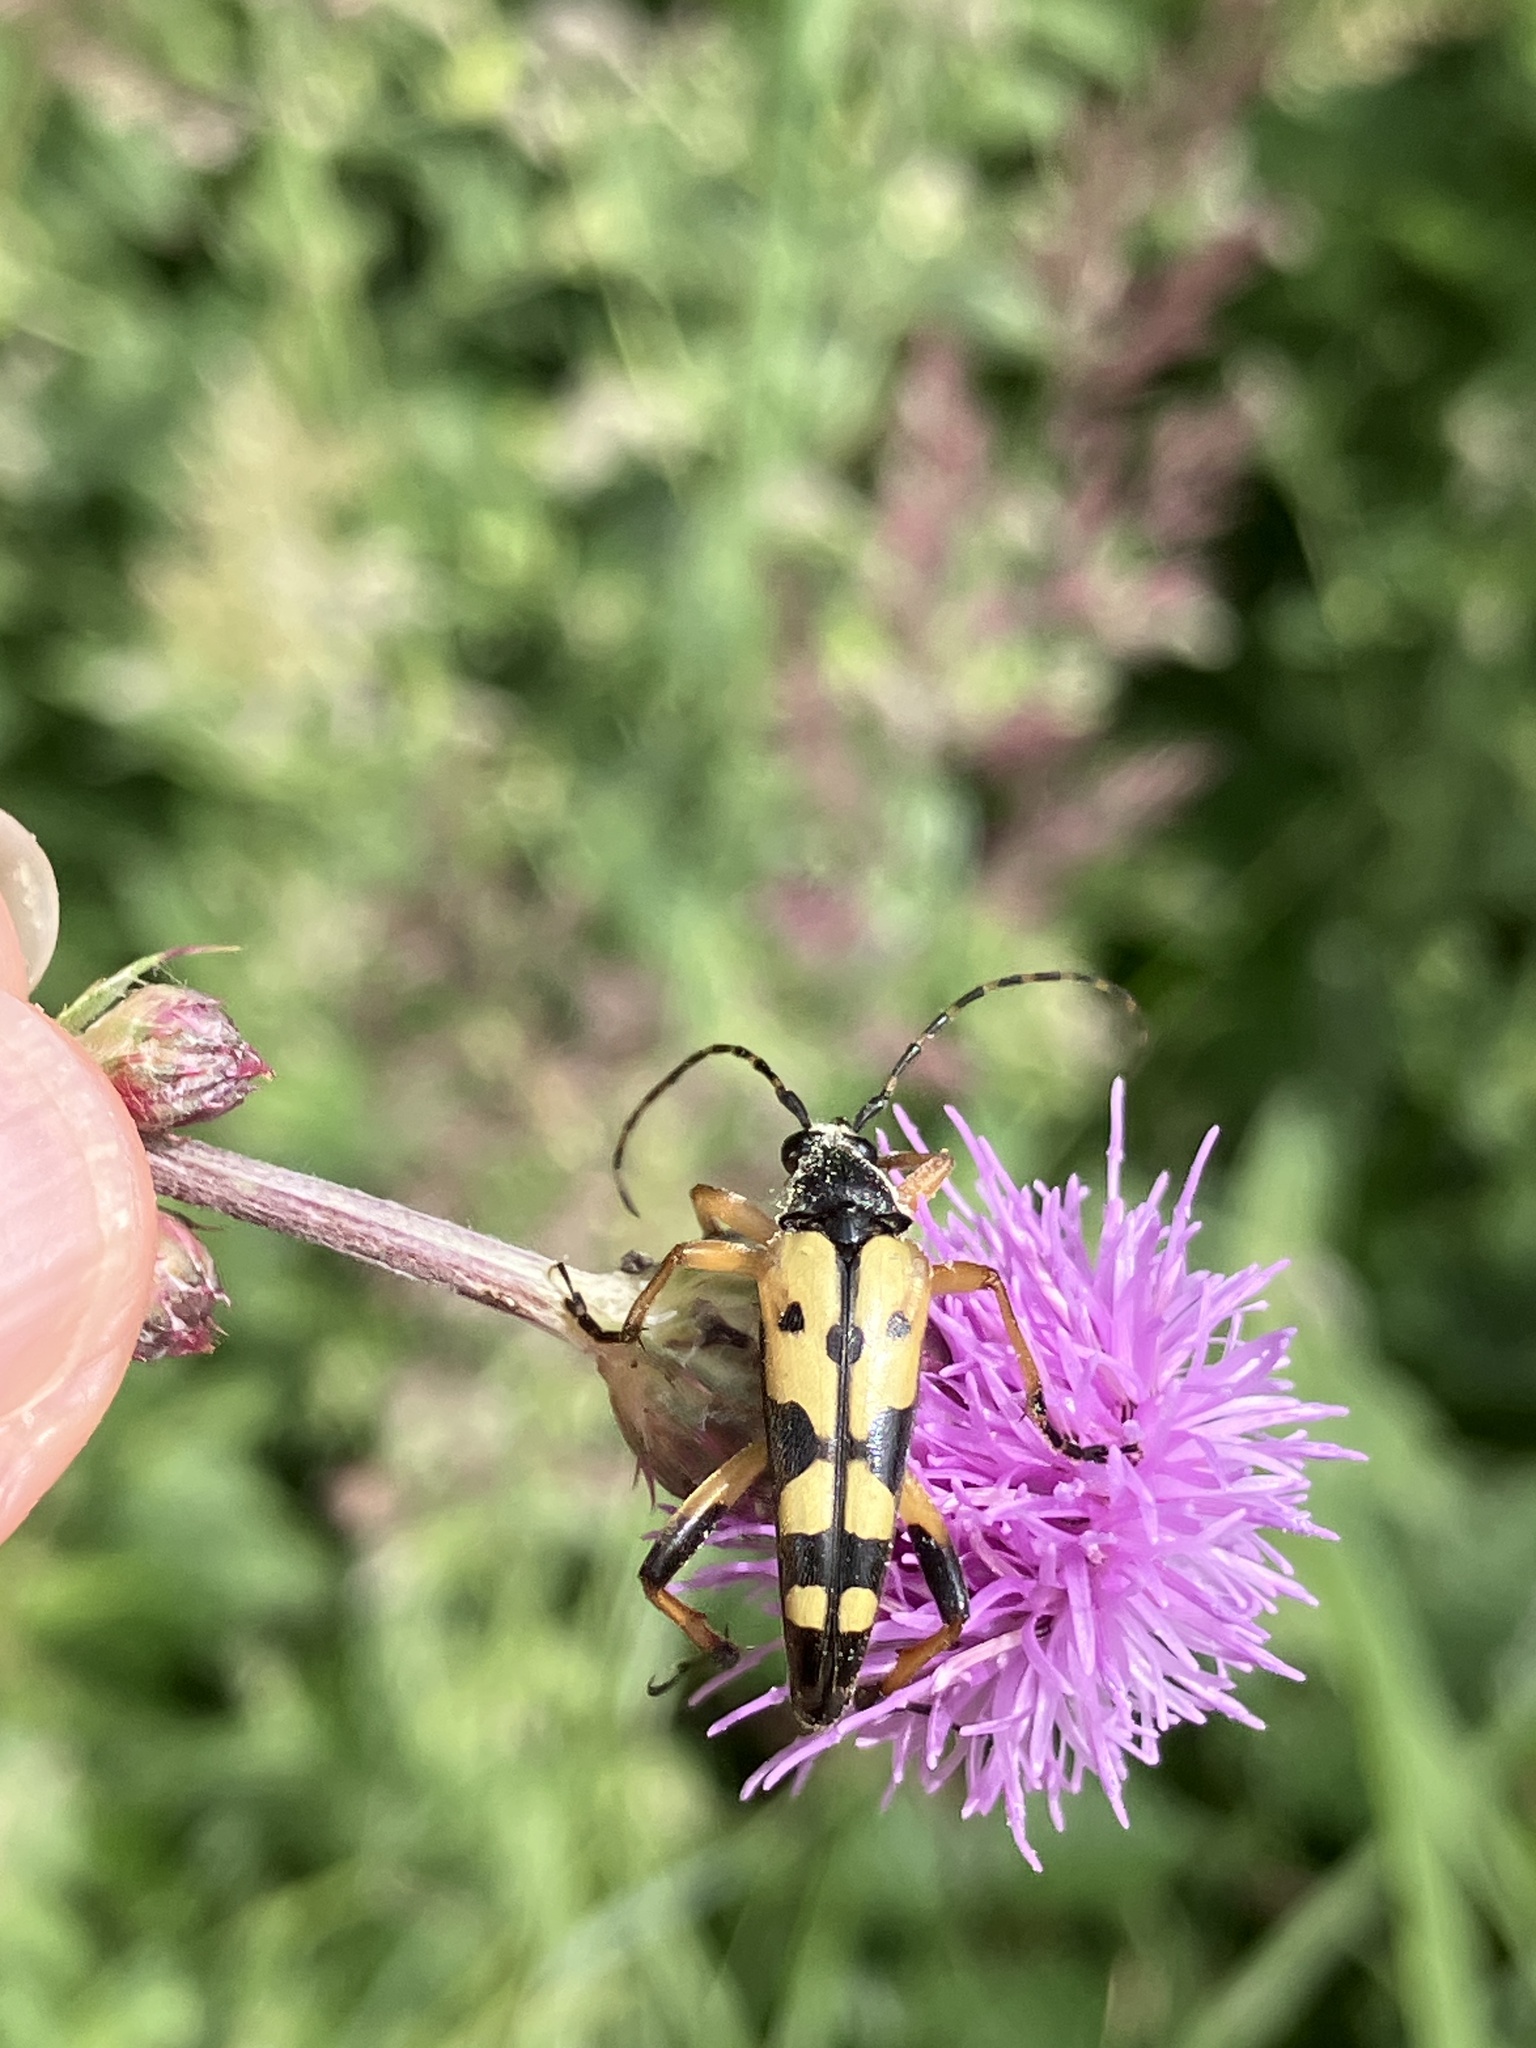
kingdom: Animalia
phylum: Arthropoda
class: Insecta
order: Coleoptera
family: Cerambycidae
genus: Rutpela
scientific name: Rutpela maculata
